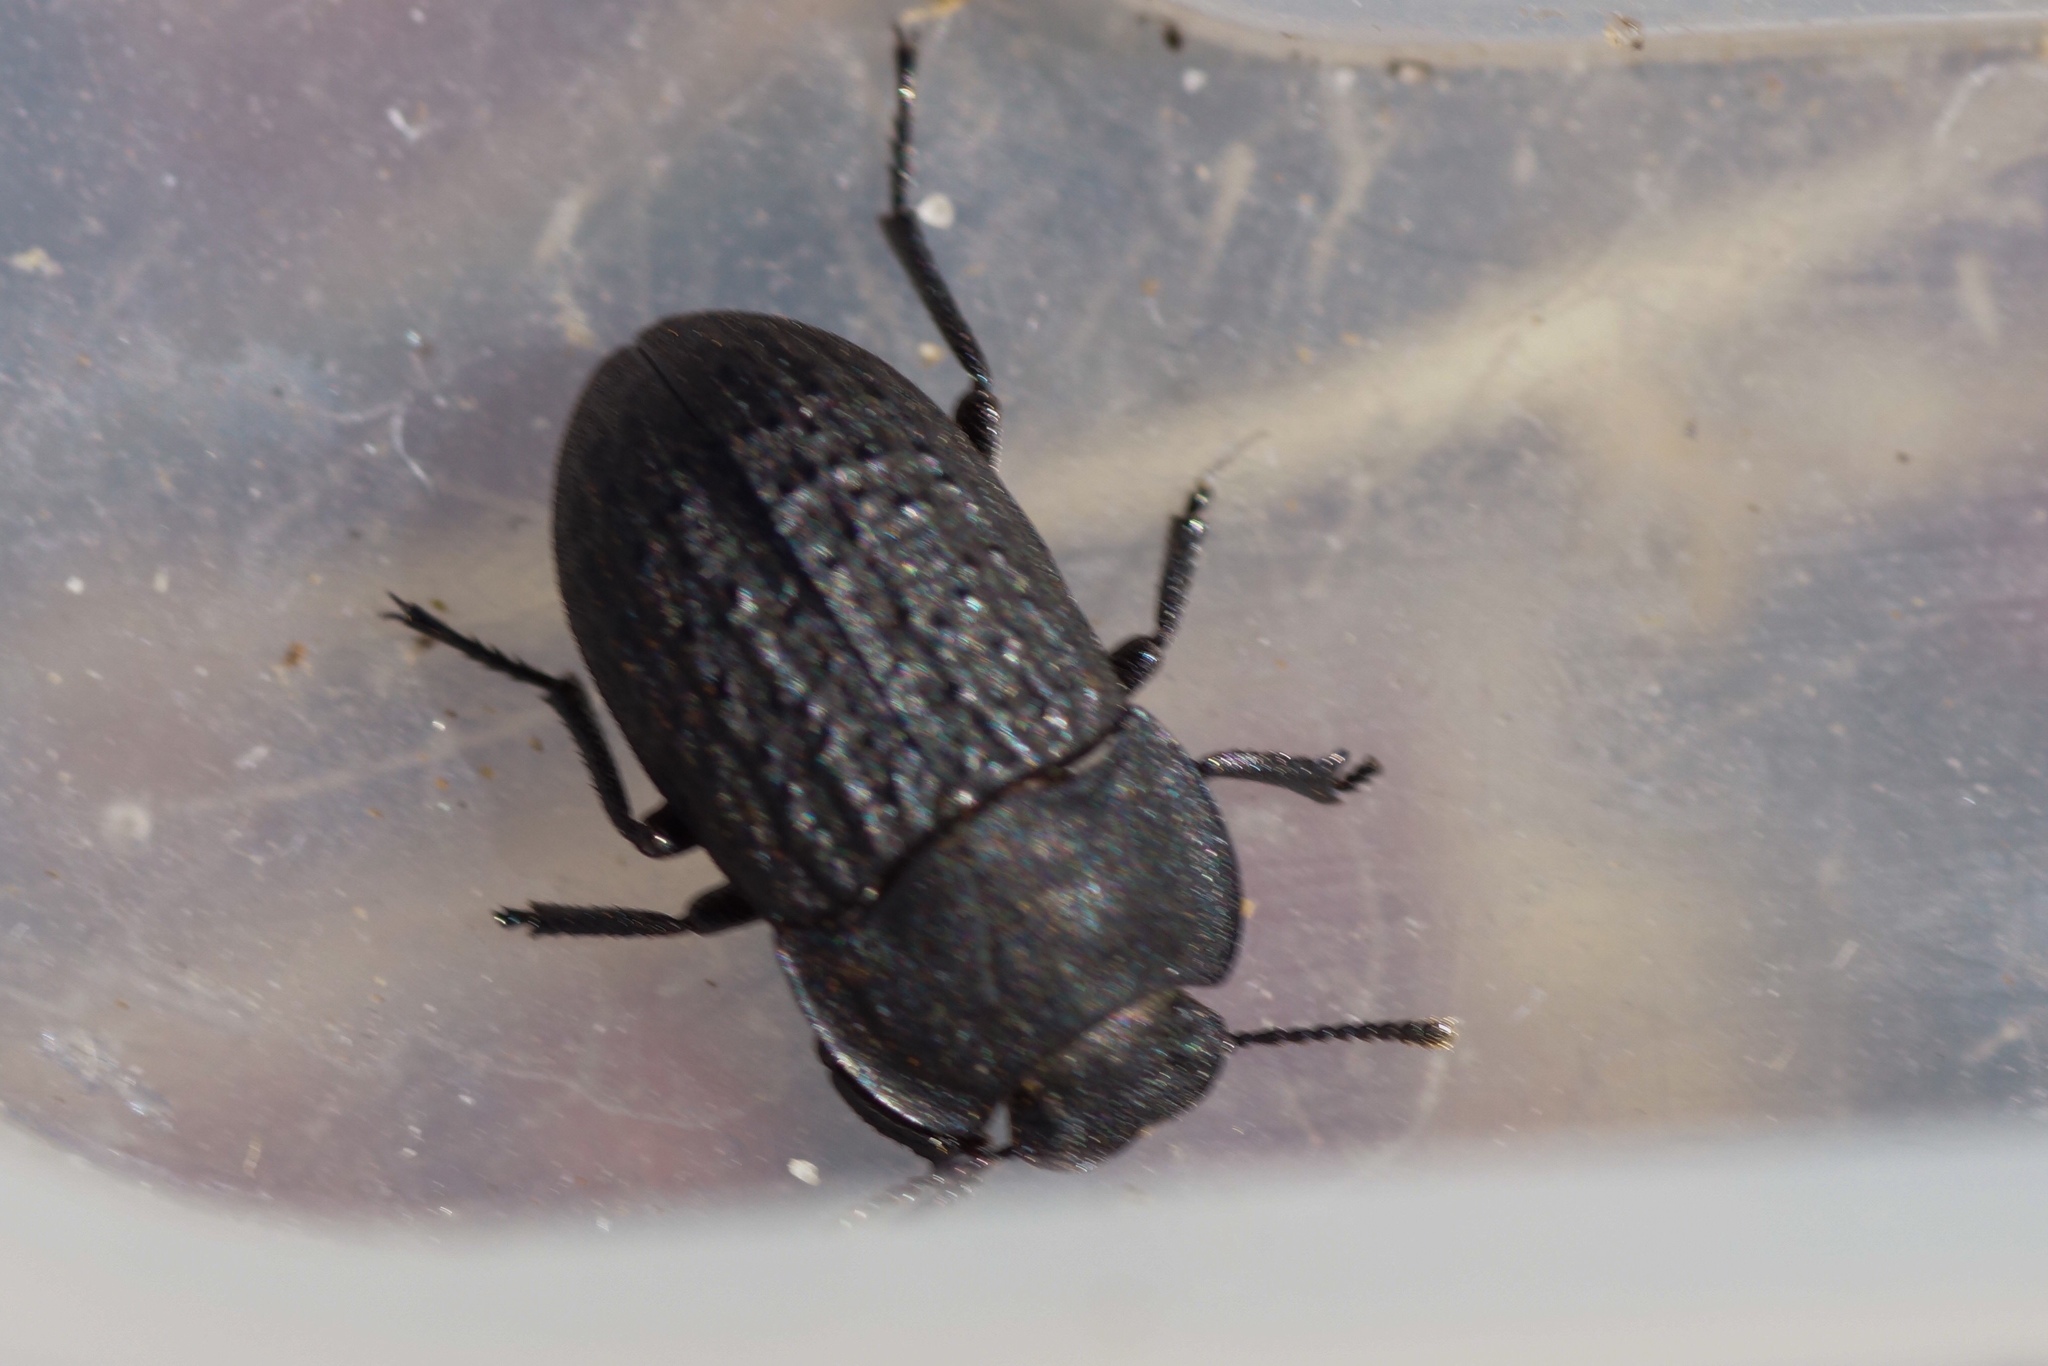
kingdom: Animalia
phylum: Arthropoda
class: Insecta
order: Coleoptera
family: Tenebrionidae
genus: Opatrum
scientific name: Opatrum sabulosum
